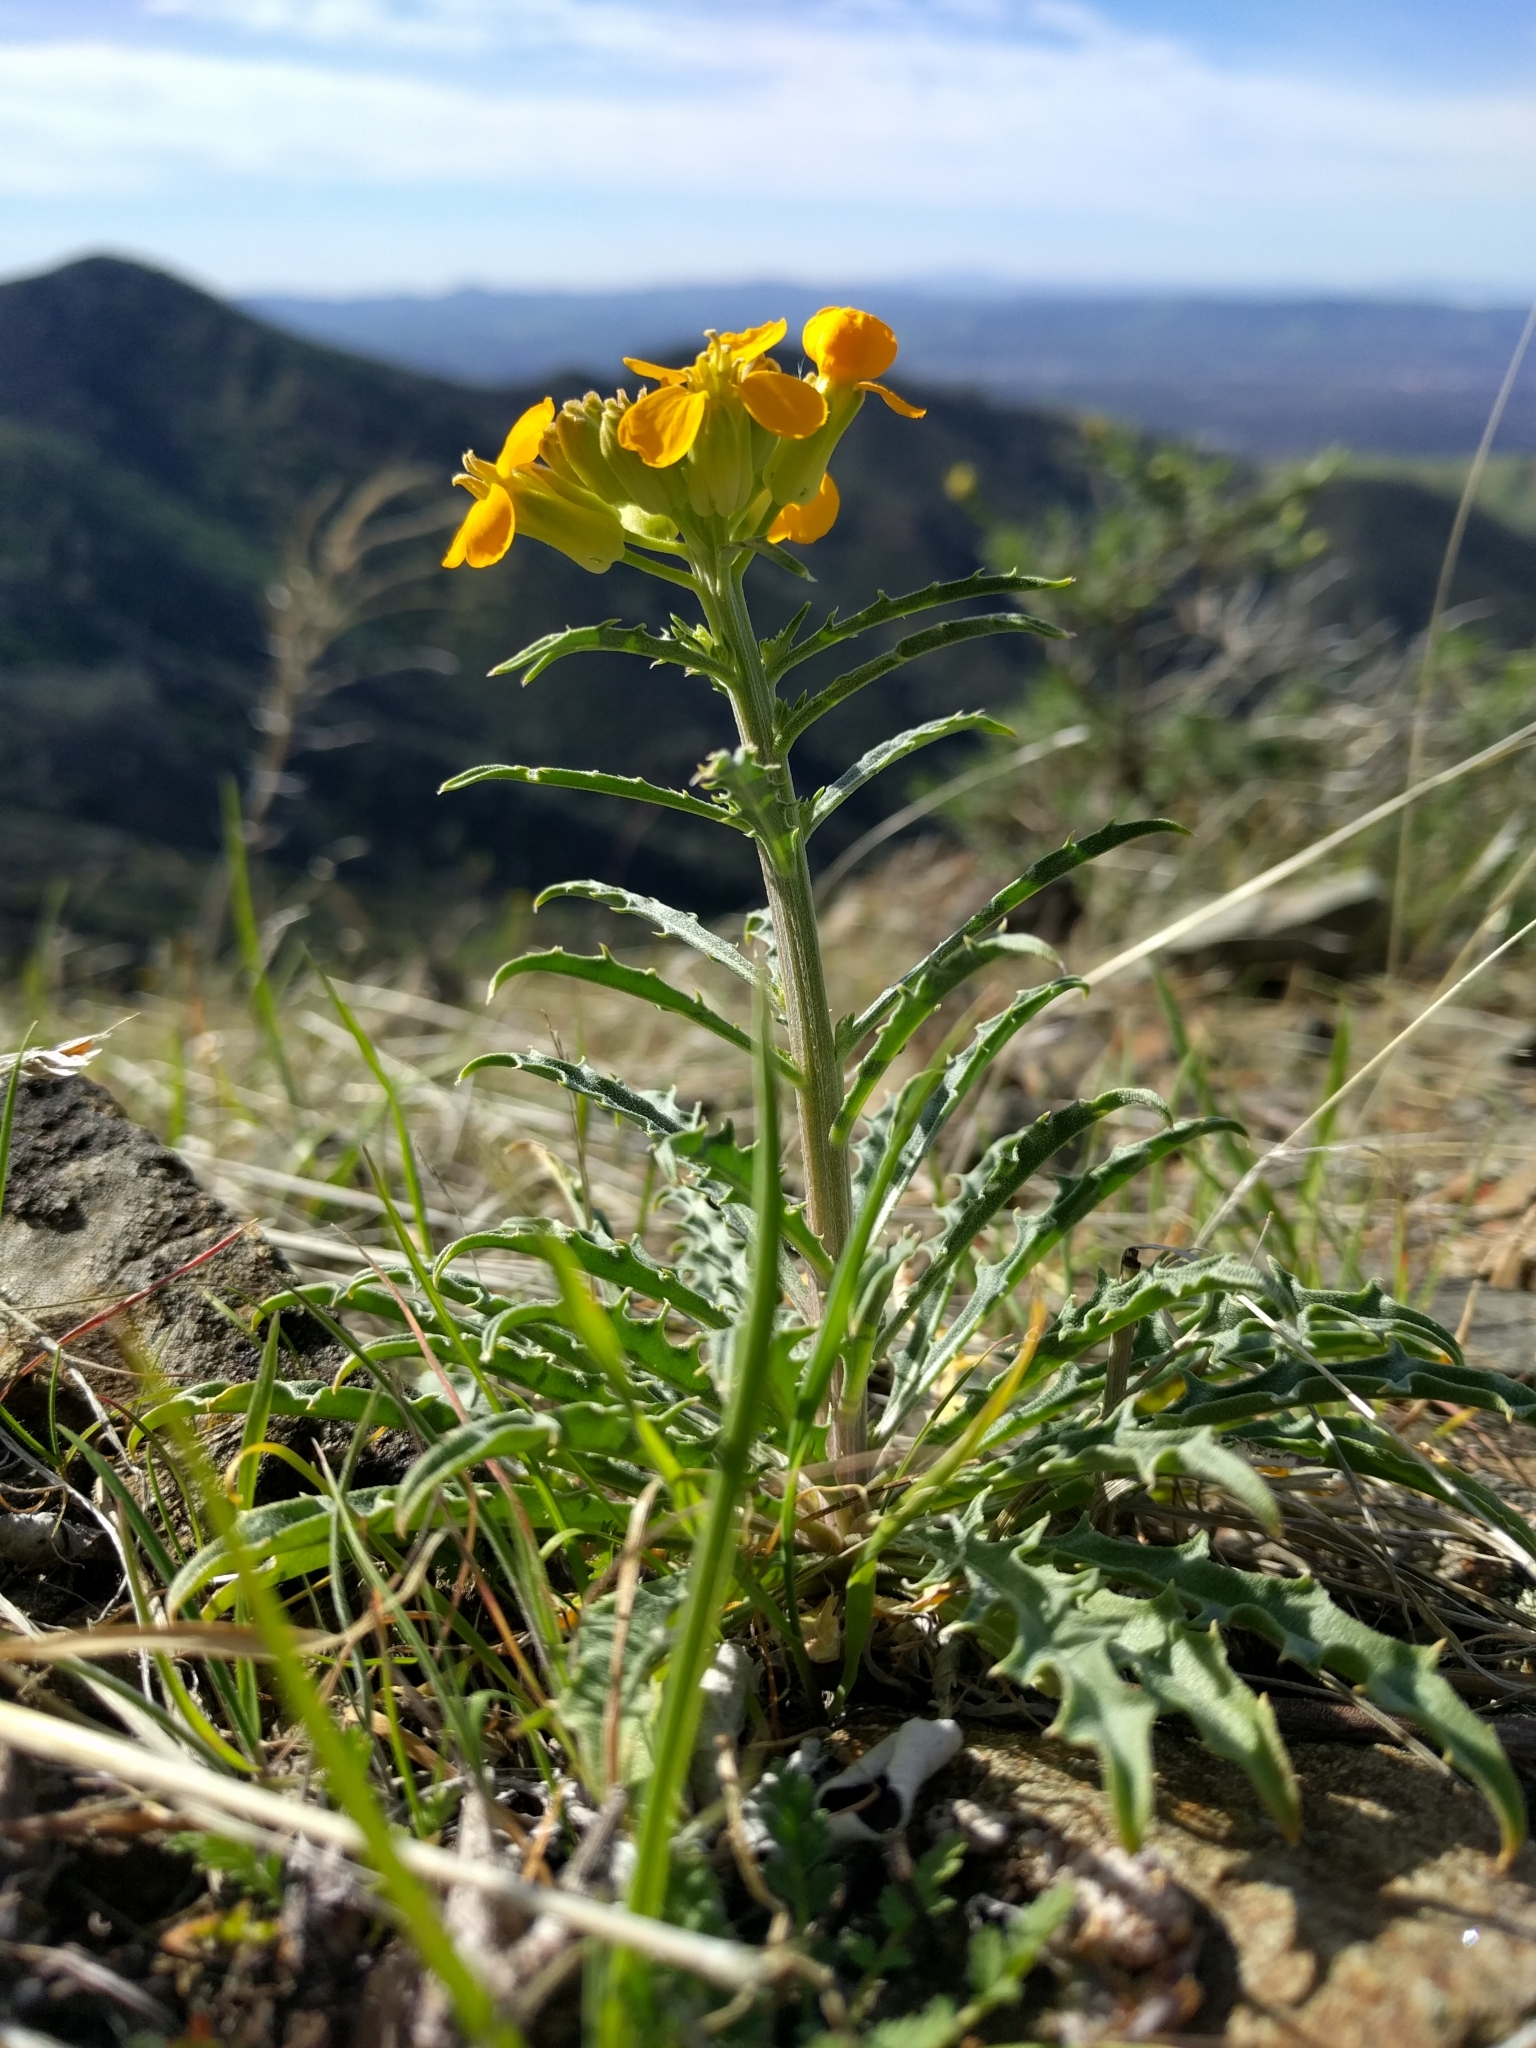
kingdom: Plantae
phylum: Tracheophyta
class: Magnoliopsida
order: Brassicales
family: Brassicaceae
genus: Erysimum
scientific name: Erysimum capitatum
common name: Western wallflower
